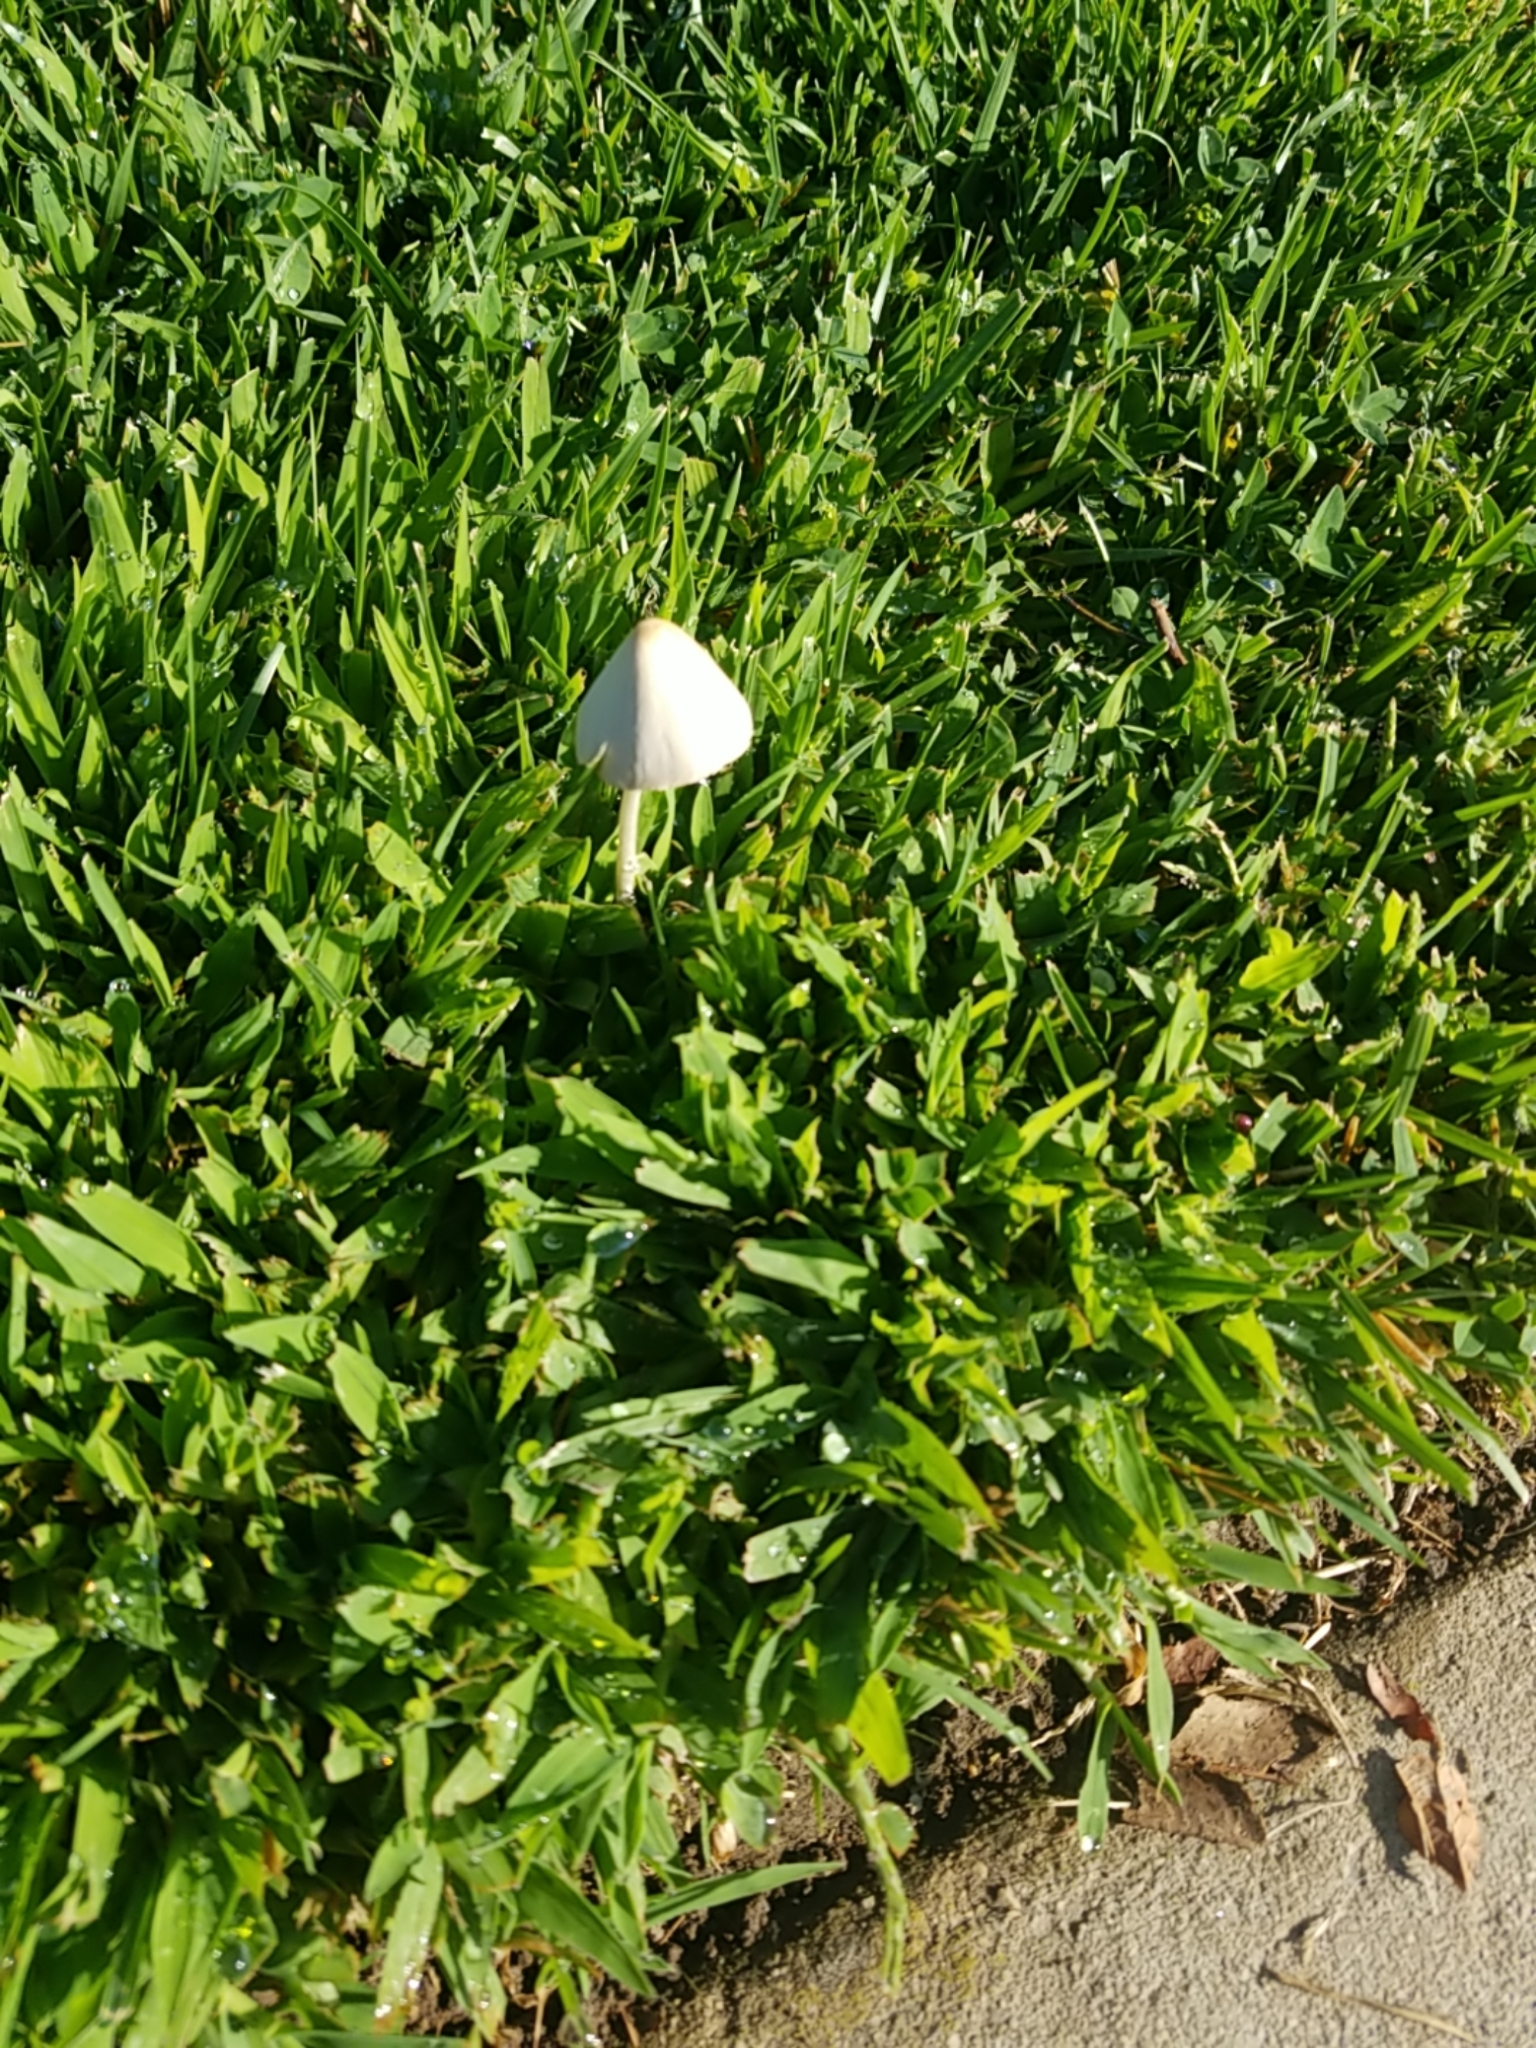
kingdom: Fungi
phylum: Basidiomycota
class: Agaricomycetes
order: Agaricales
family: Bolbitiaceae
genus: Conocybe
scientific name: Conocybe apala
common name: Milky conecap
